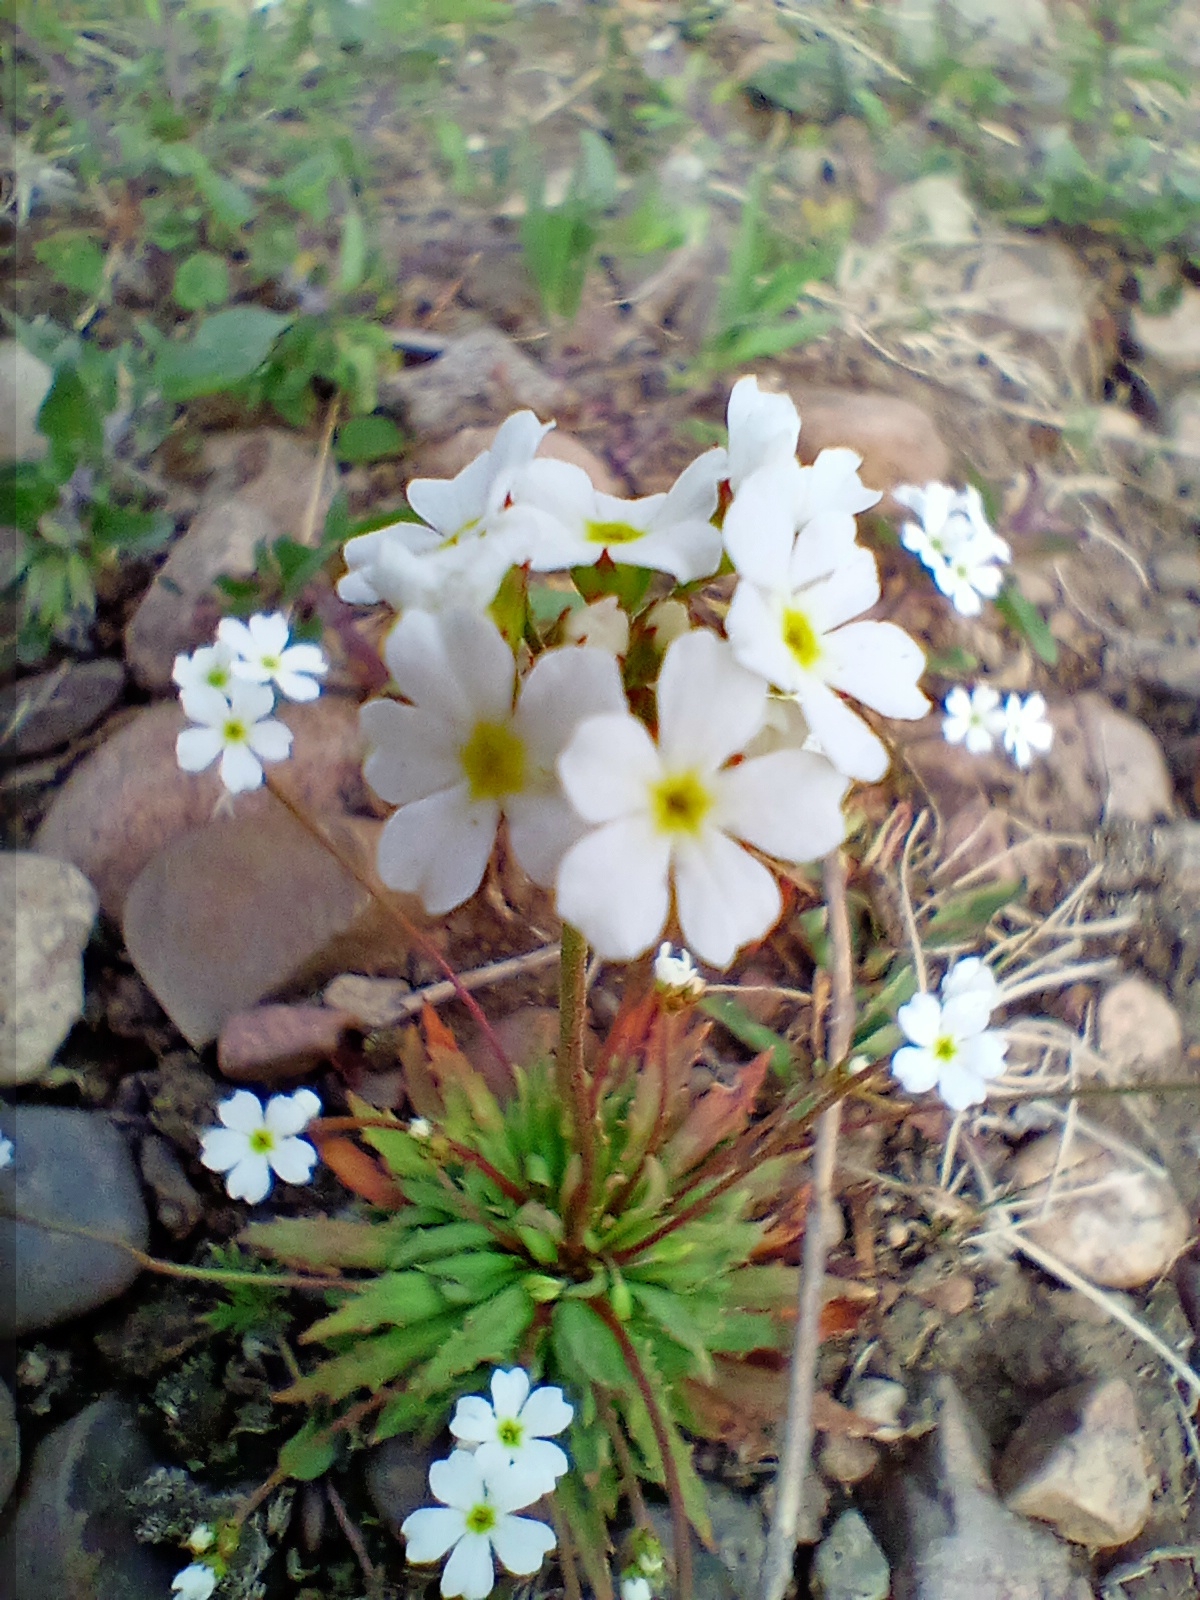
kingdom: Plantae
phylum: Tracheophyta
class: Magnoliopsida
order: Ericales
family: Primulaceae
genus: Androsace
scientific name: Androsace lactiflora
